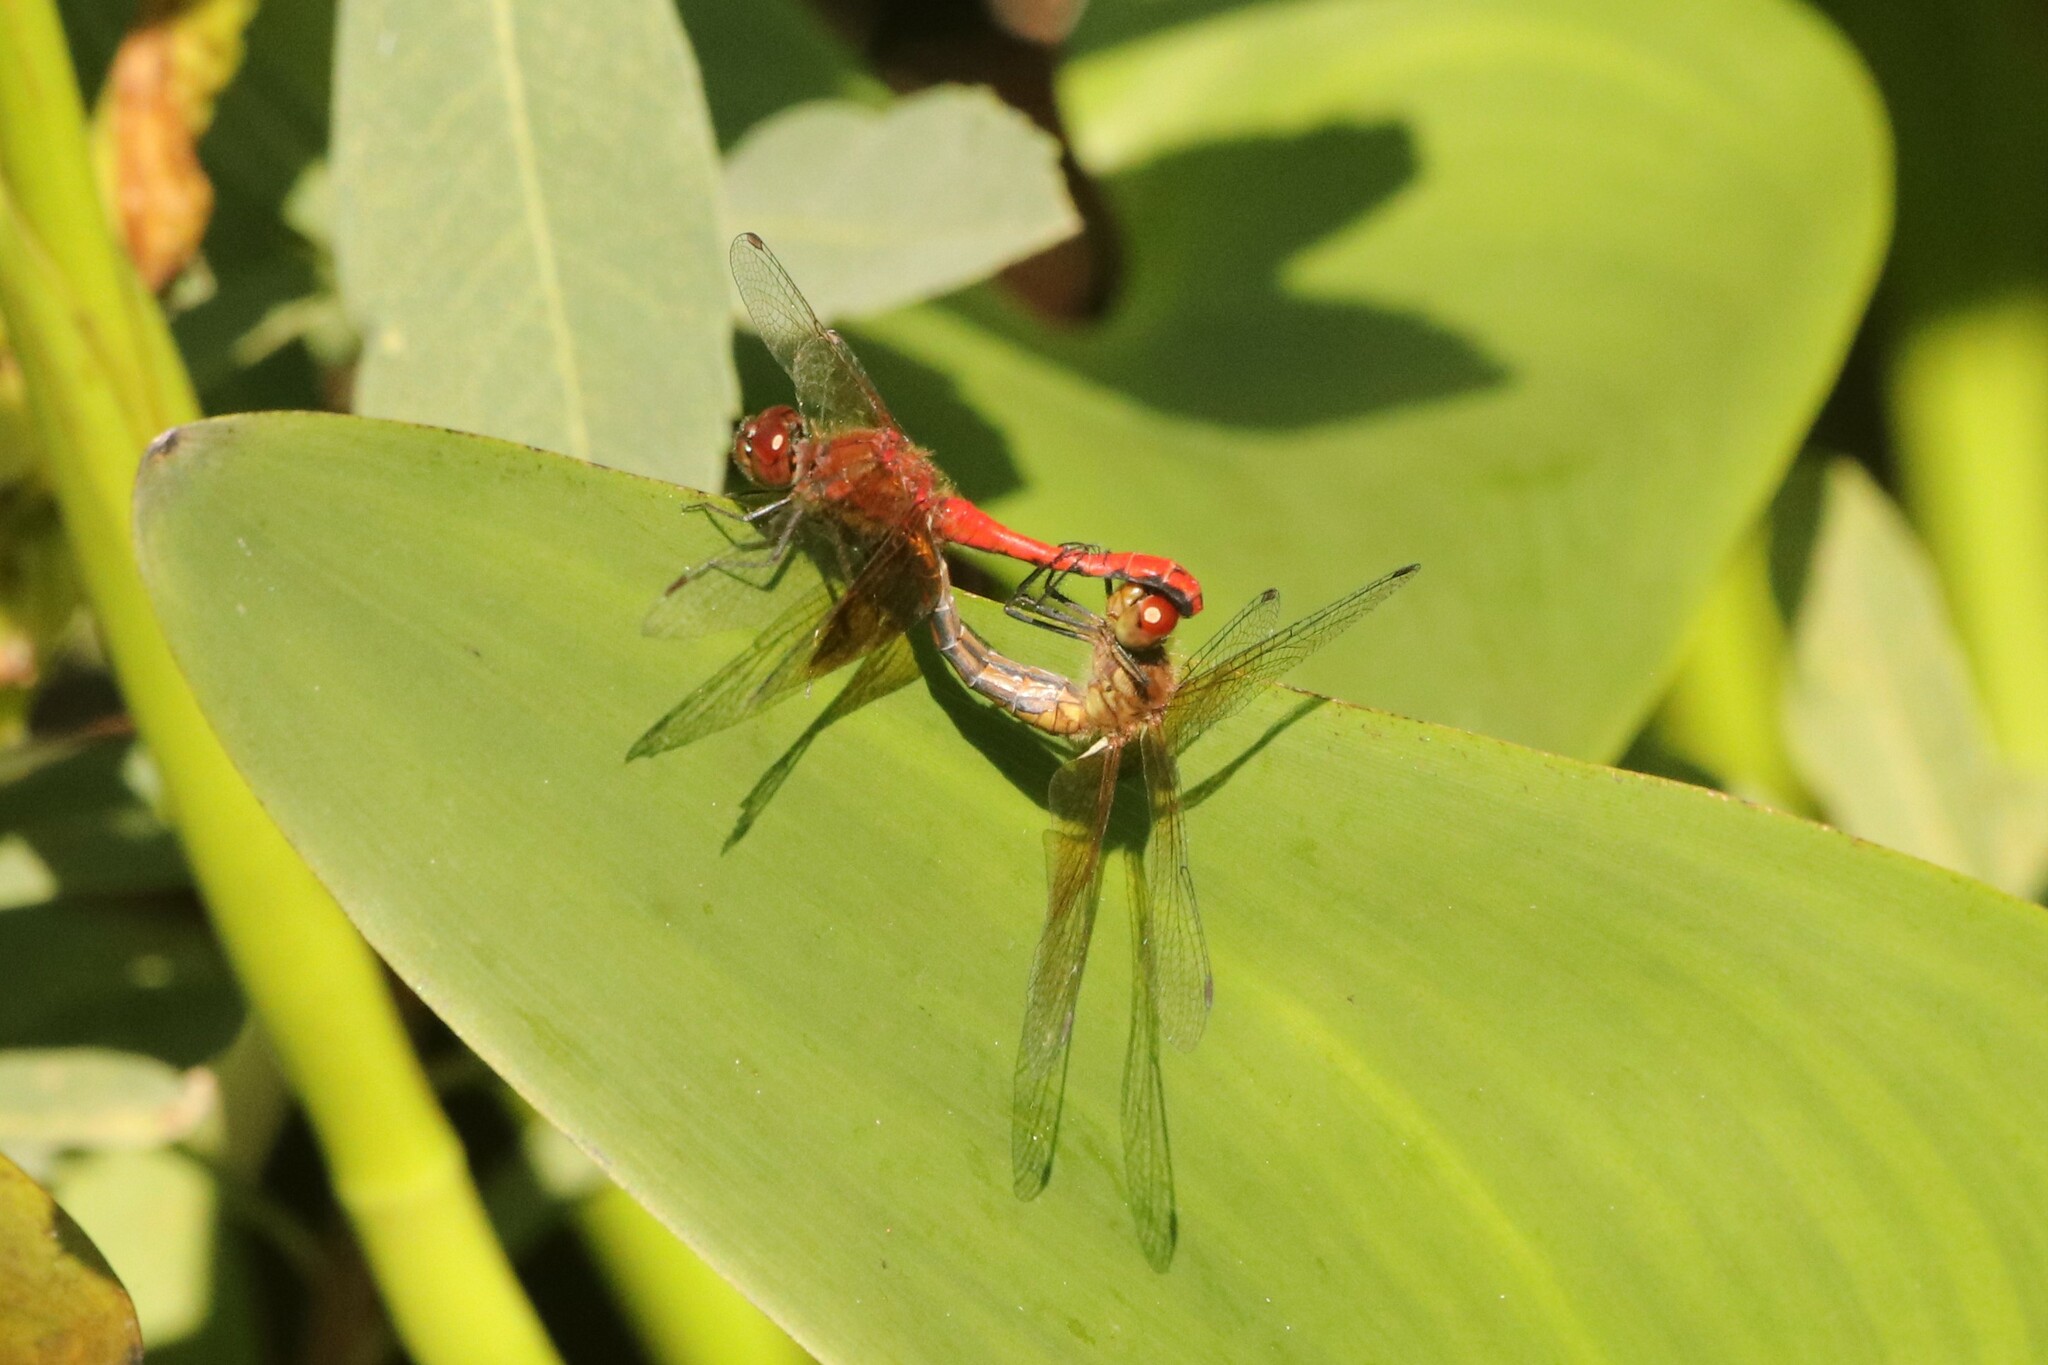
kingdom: Animalia
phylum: Arthropoda
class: Insecta
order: Odonata
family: Libellulidae
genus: Sympetrum
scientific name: Sympetrum semicinctum
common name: Band-winged meadowhawk
